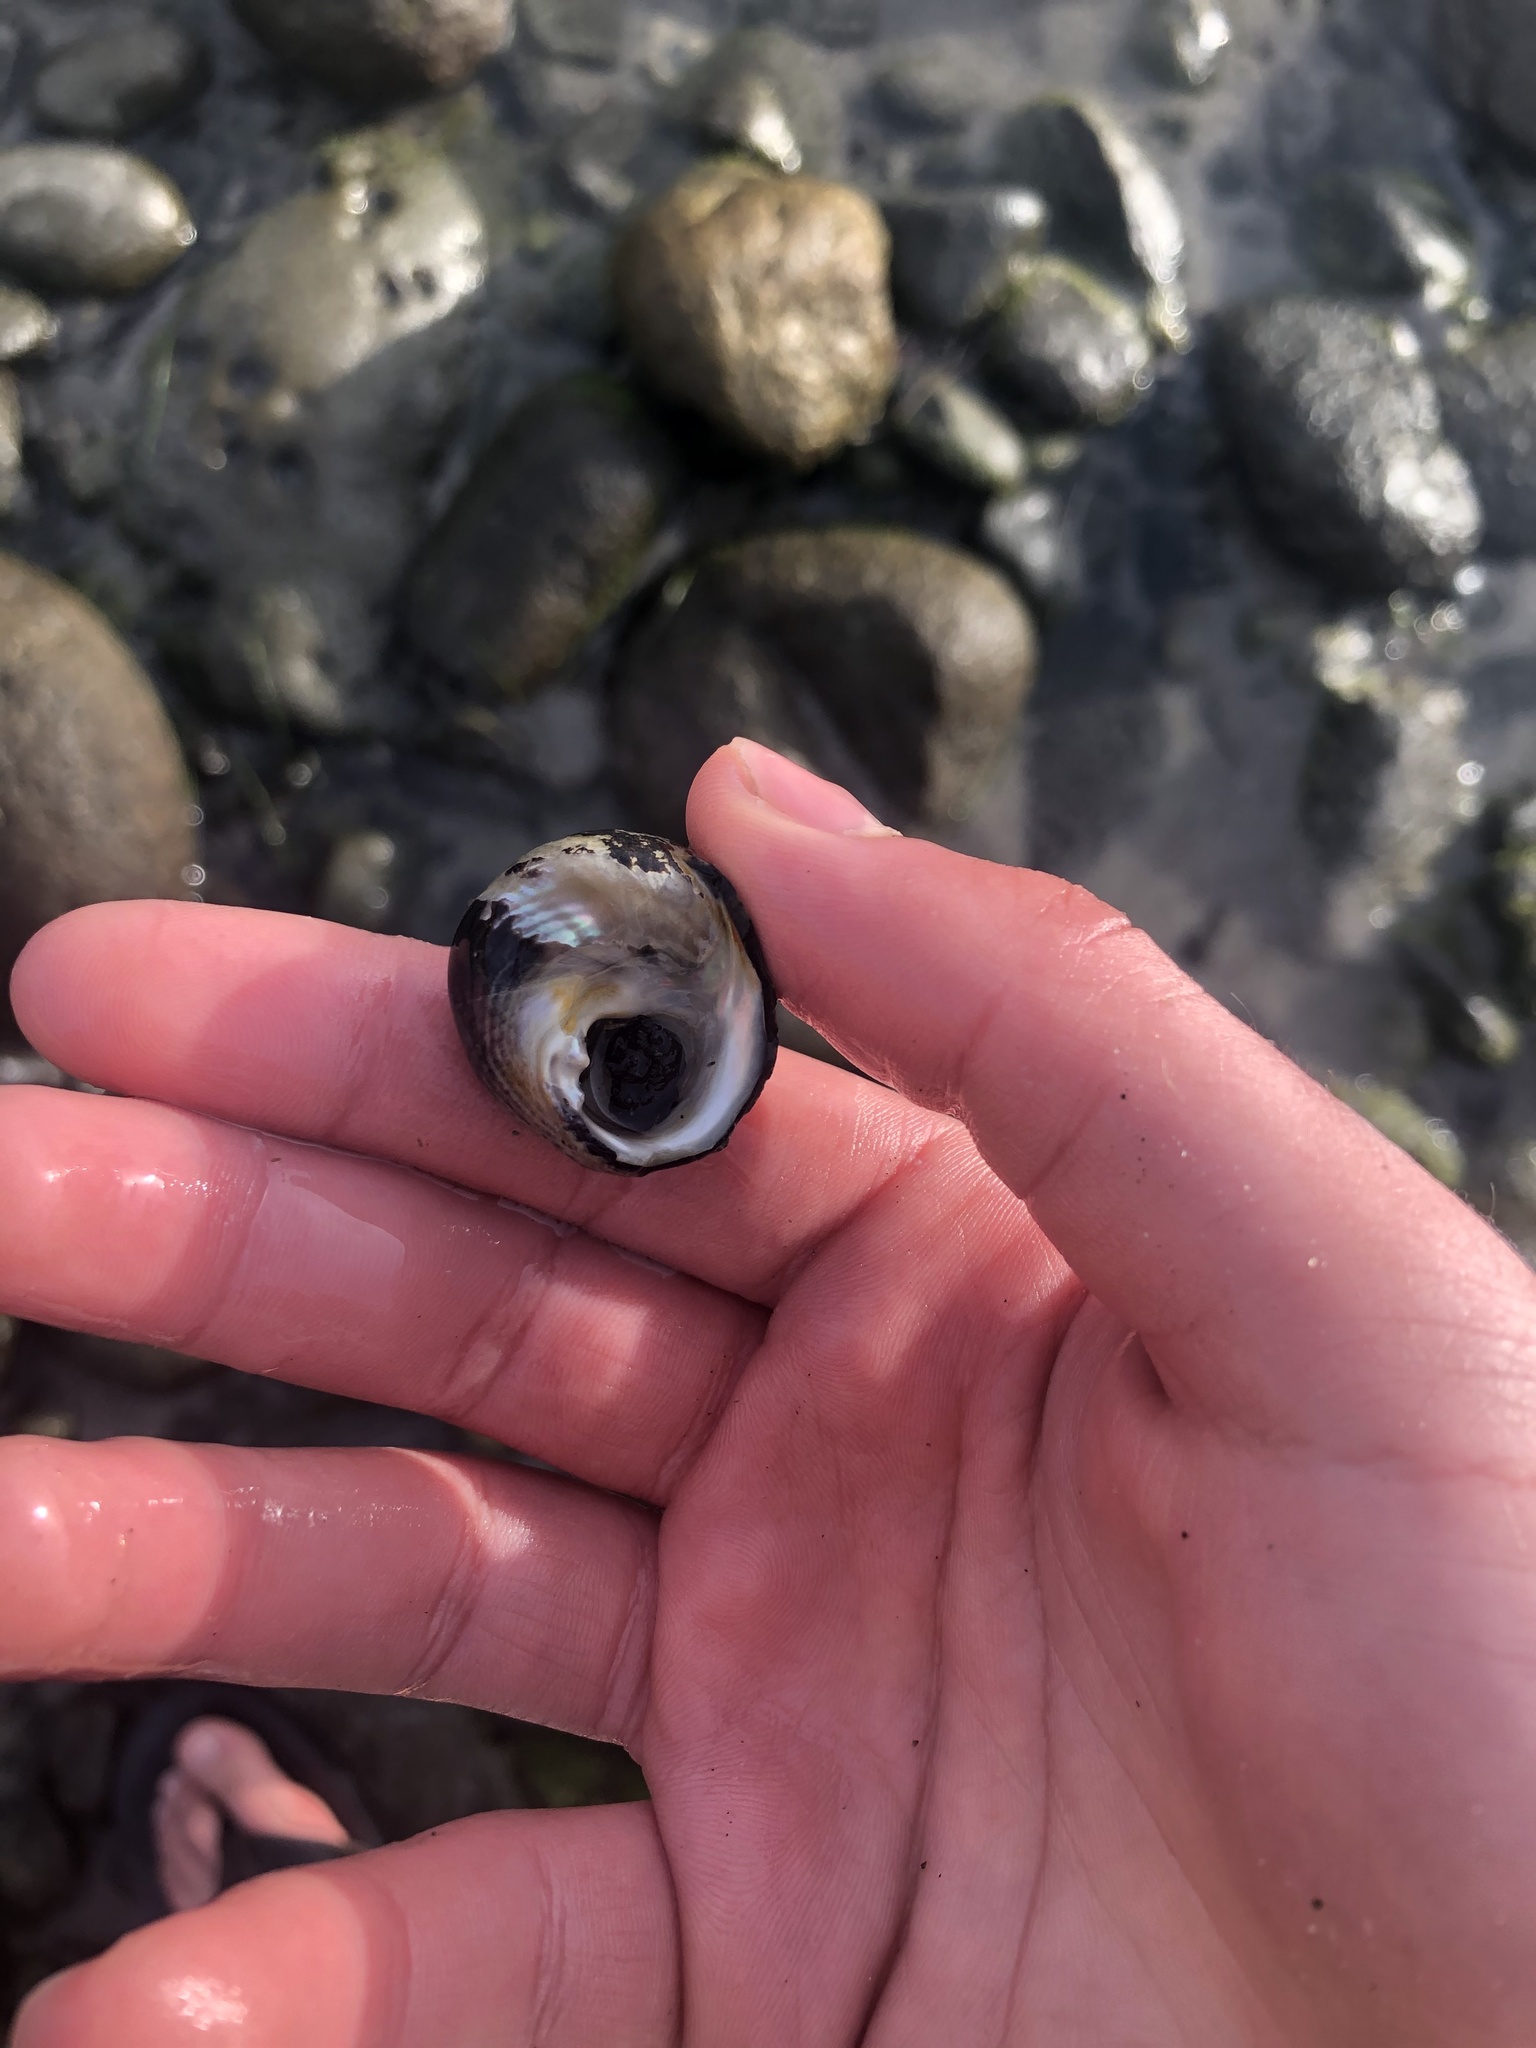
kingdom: Animalia
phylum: Mollusca
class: Gastropoda
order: Trochida
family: Tegulidae
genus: Tegula
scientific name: Tegula gallina
